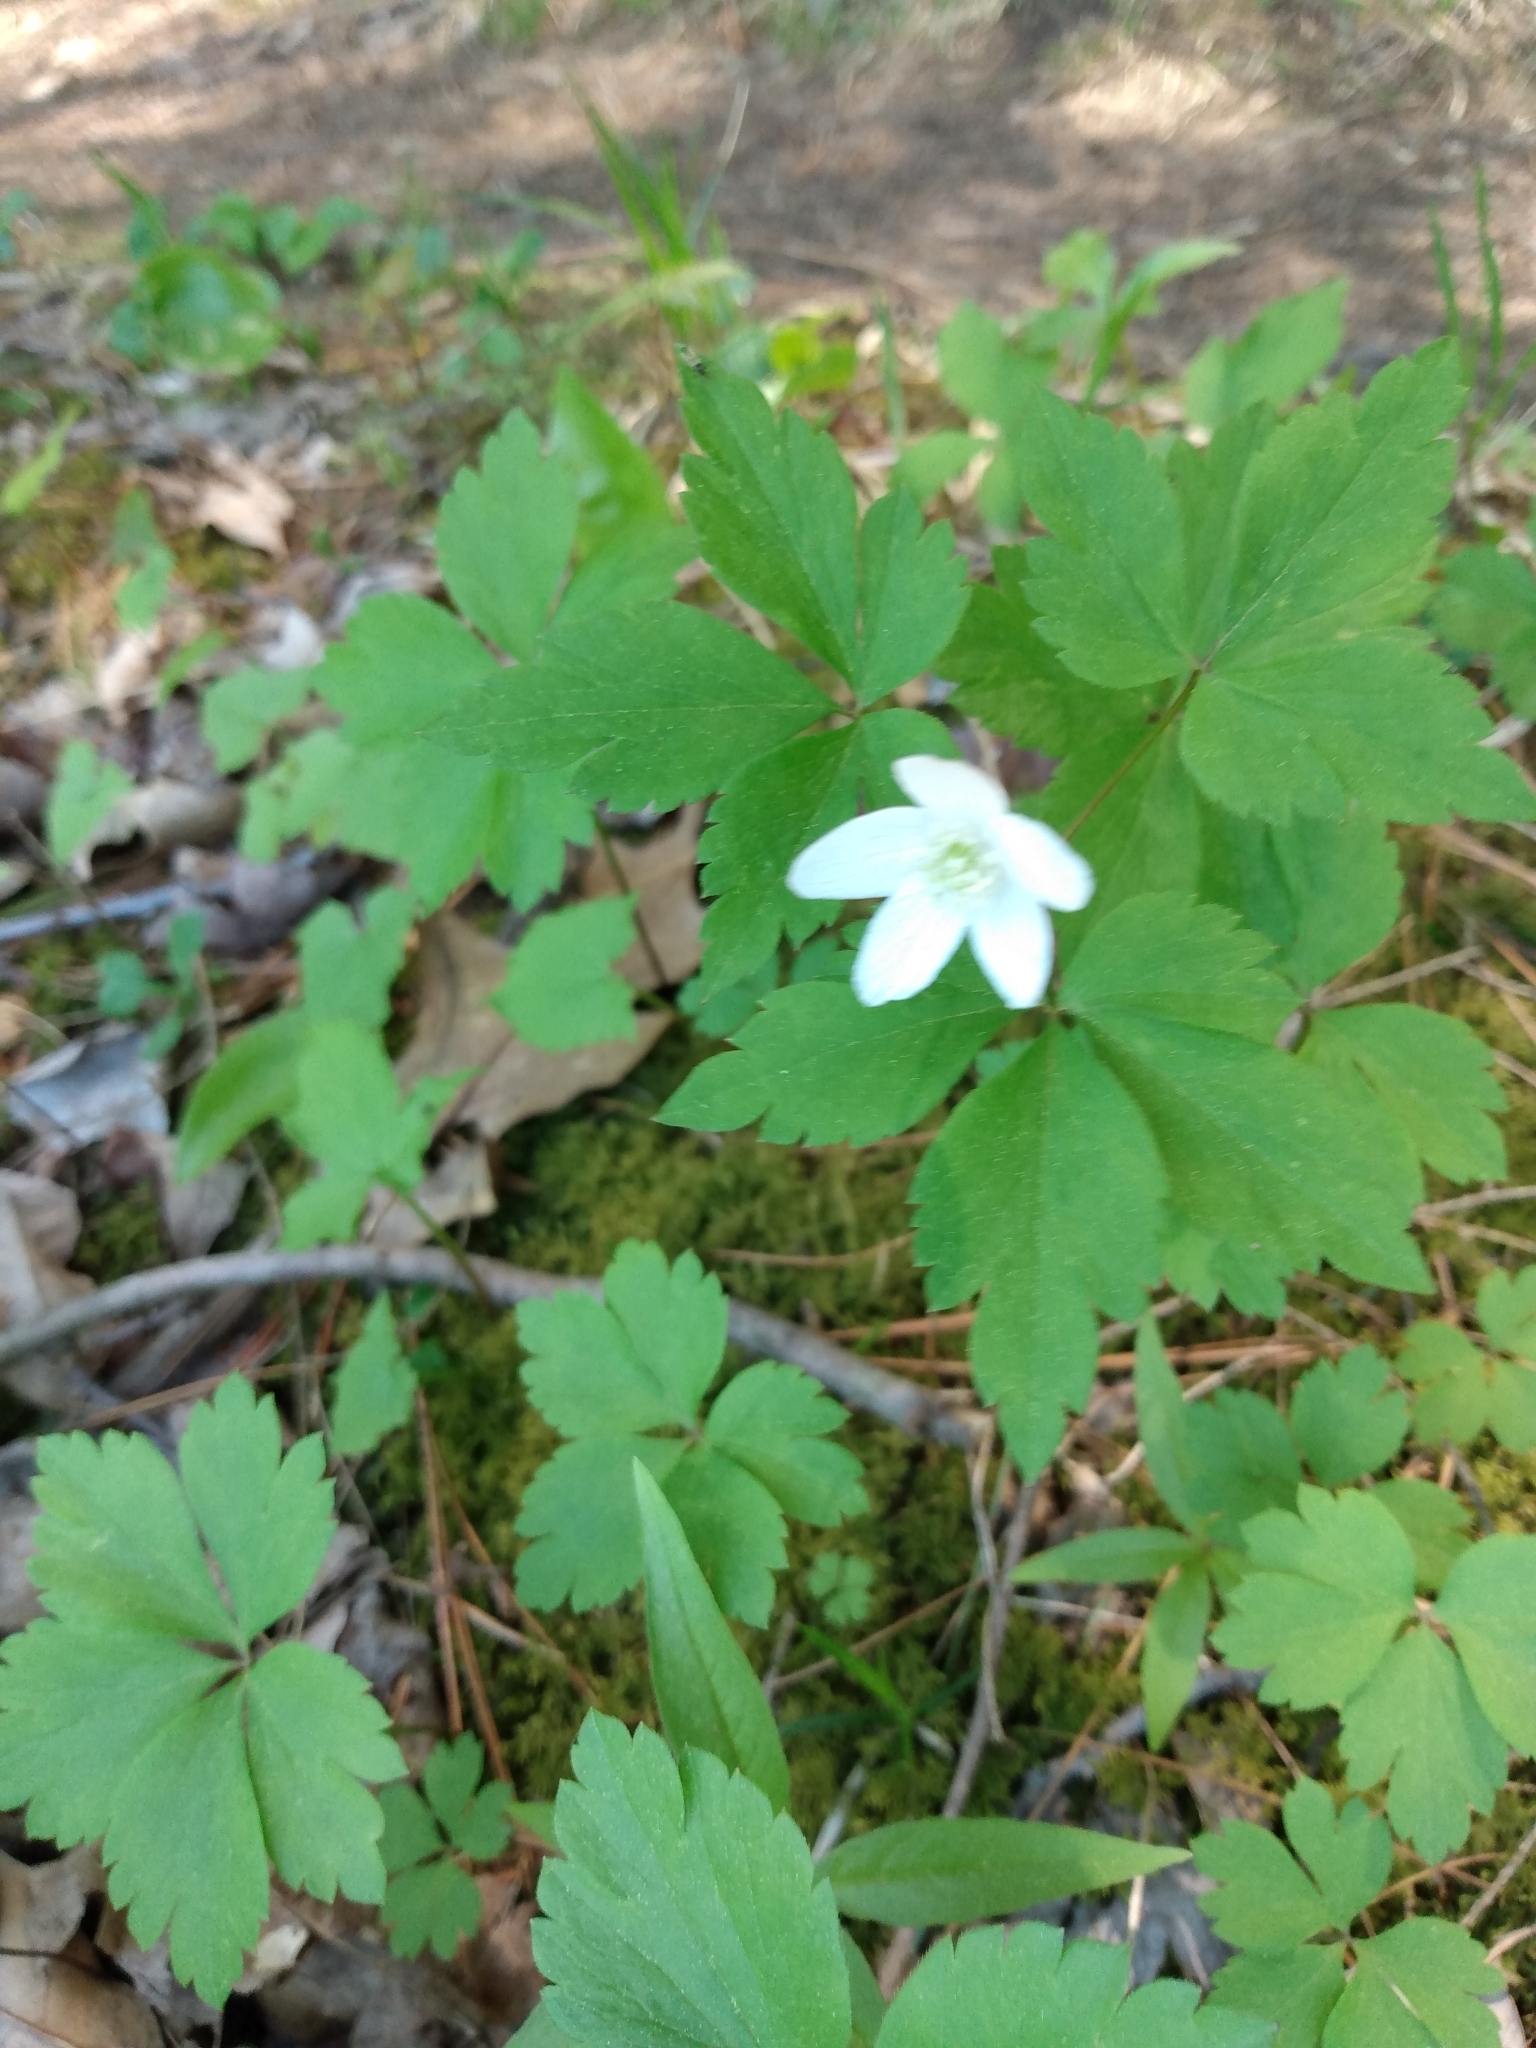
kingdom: Plantae
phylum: Tracheophyta
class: Magnoliopsida
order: Ranunculales
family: Ranunculaceae
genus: Anemone
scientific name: Anemone quinquefolia
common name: Wood anemone
